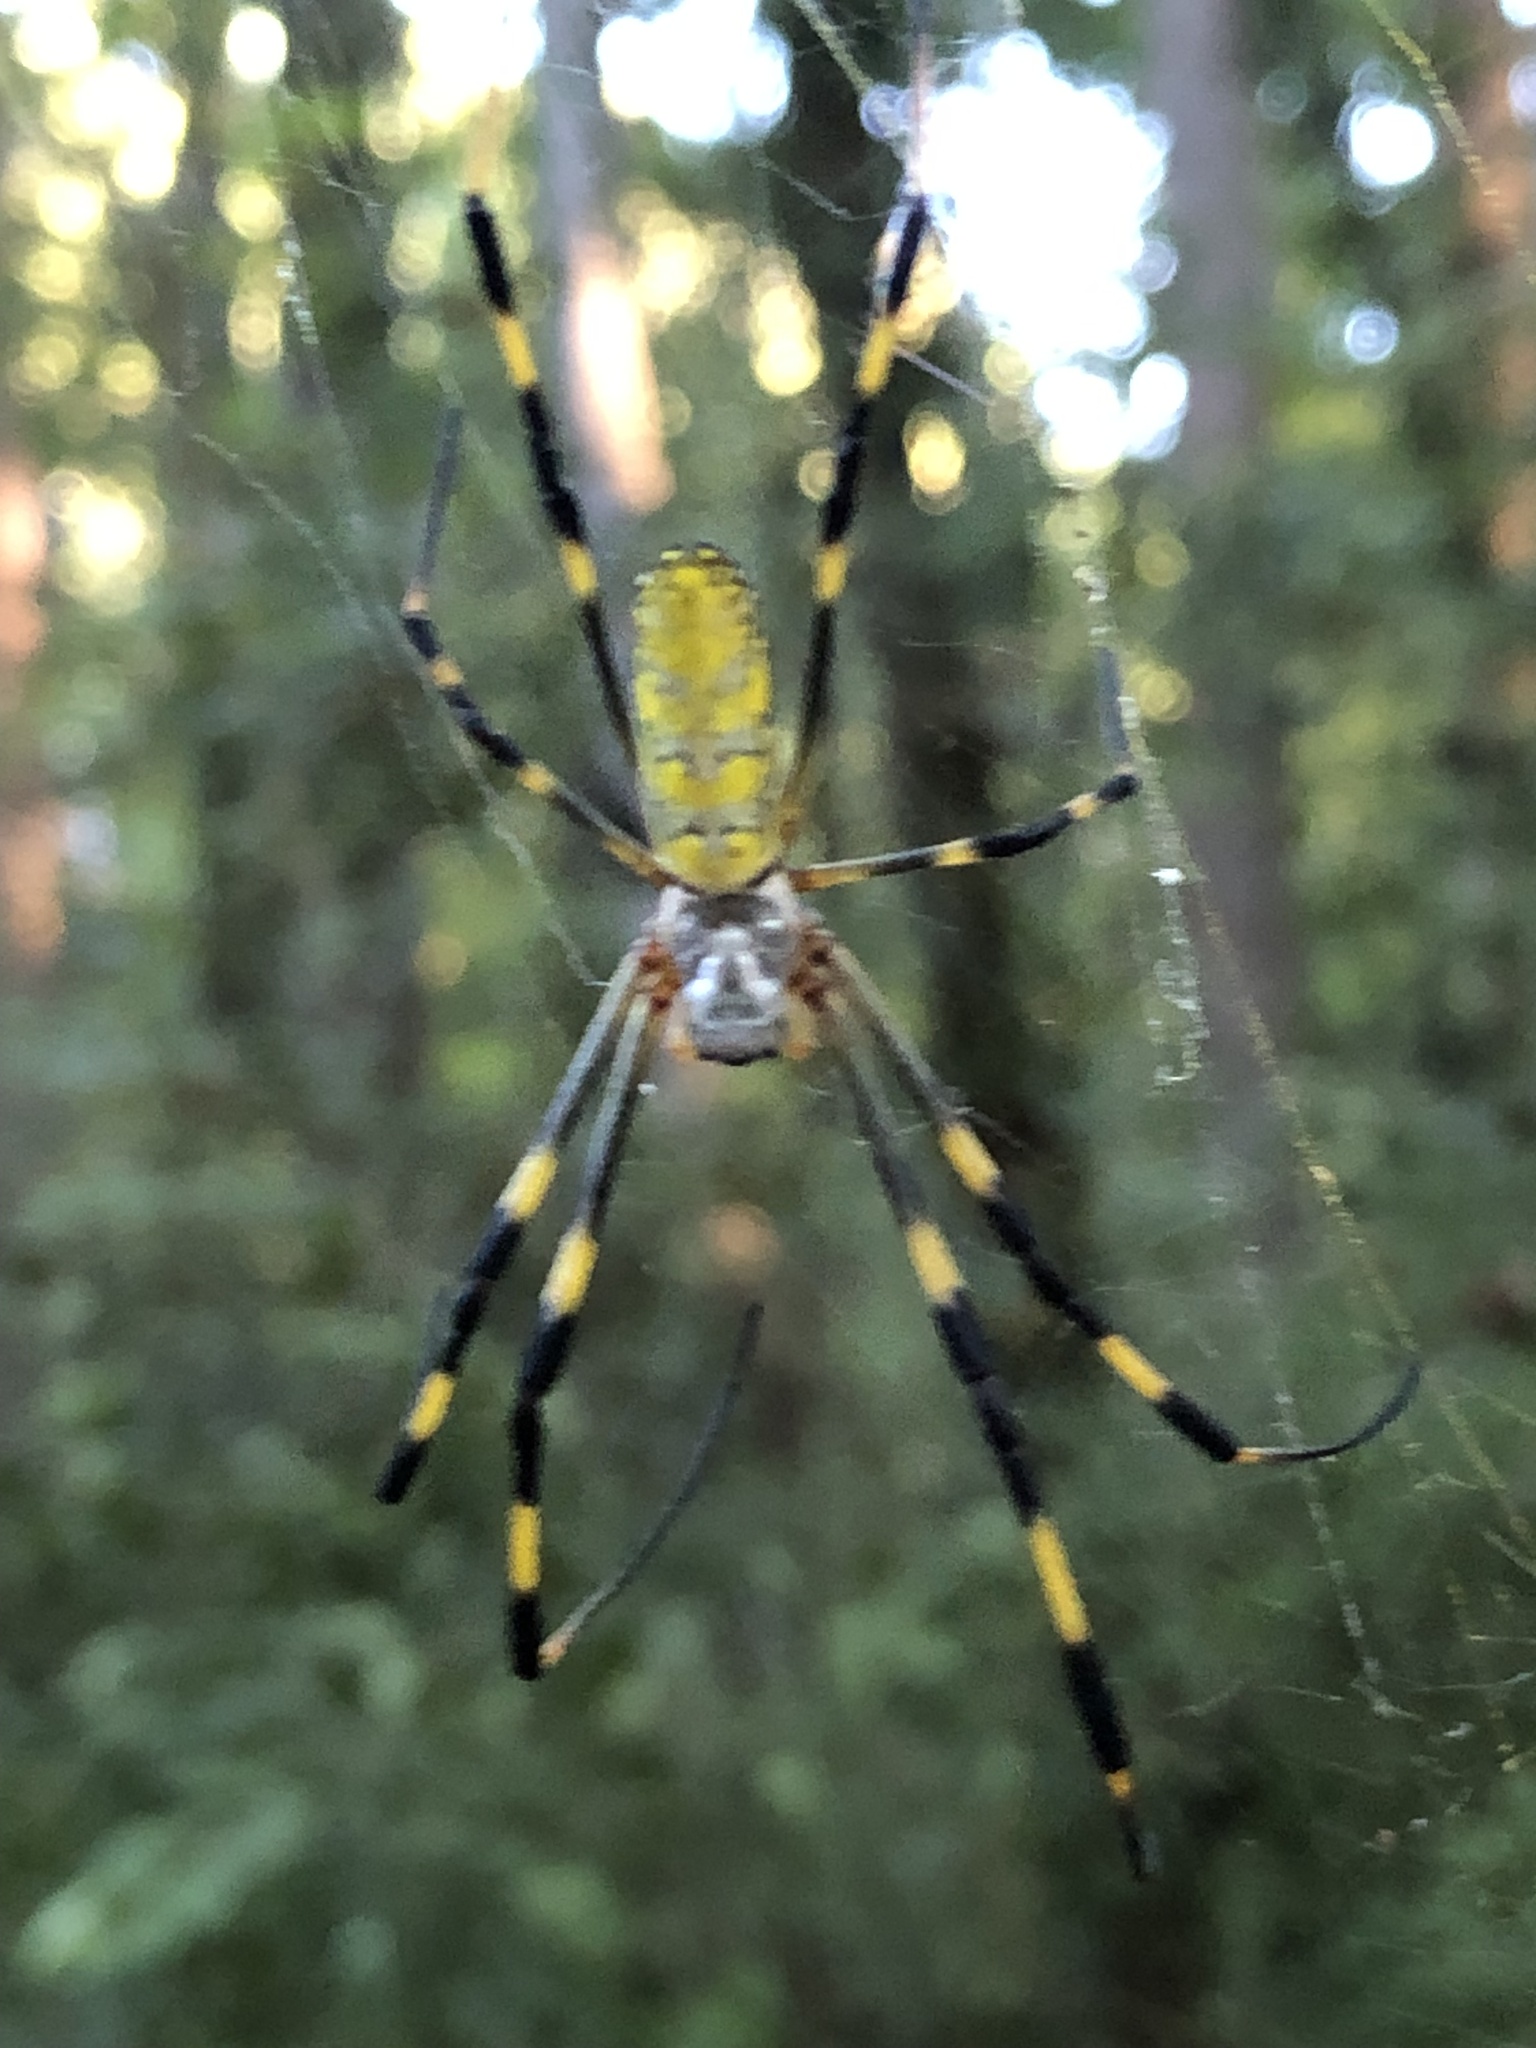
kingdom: Animalia
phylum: Arthropoda
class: Arachnida
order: Araneae
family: Araneidae
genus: Trichonephila
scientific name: Trichonephila clavata
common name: Jorō spider
